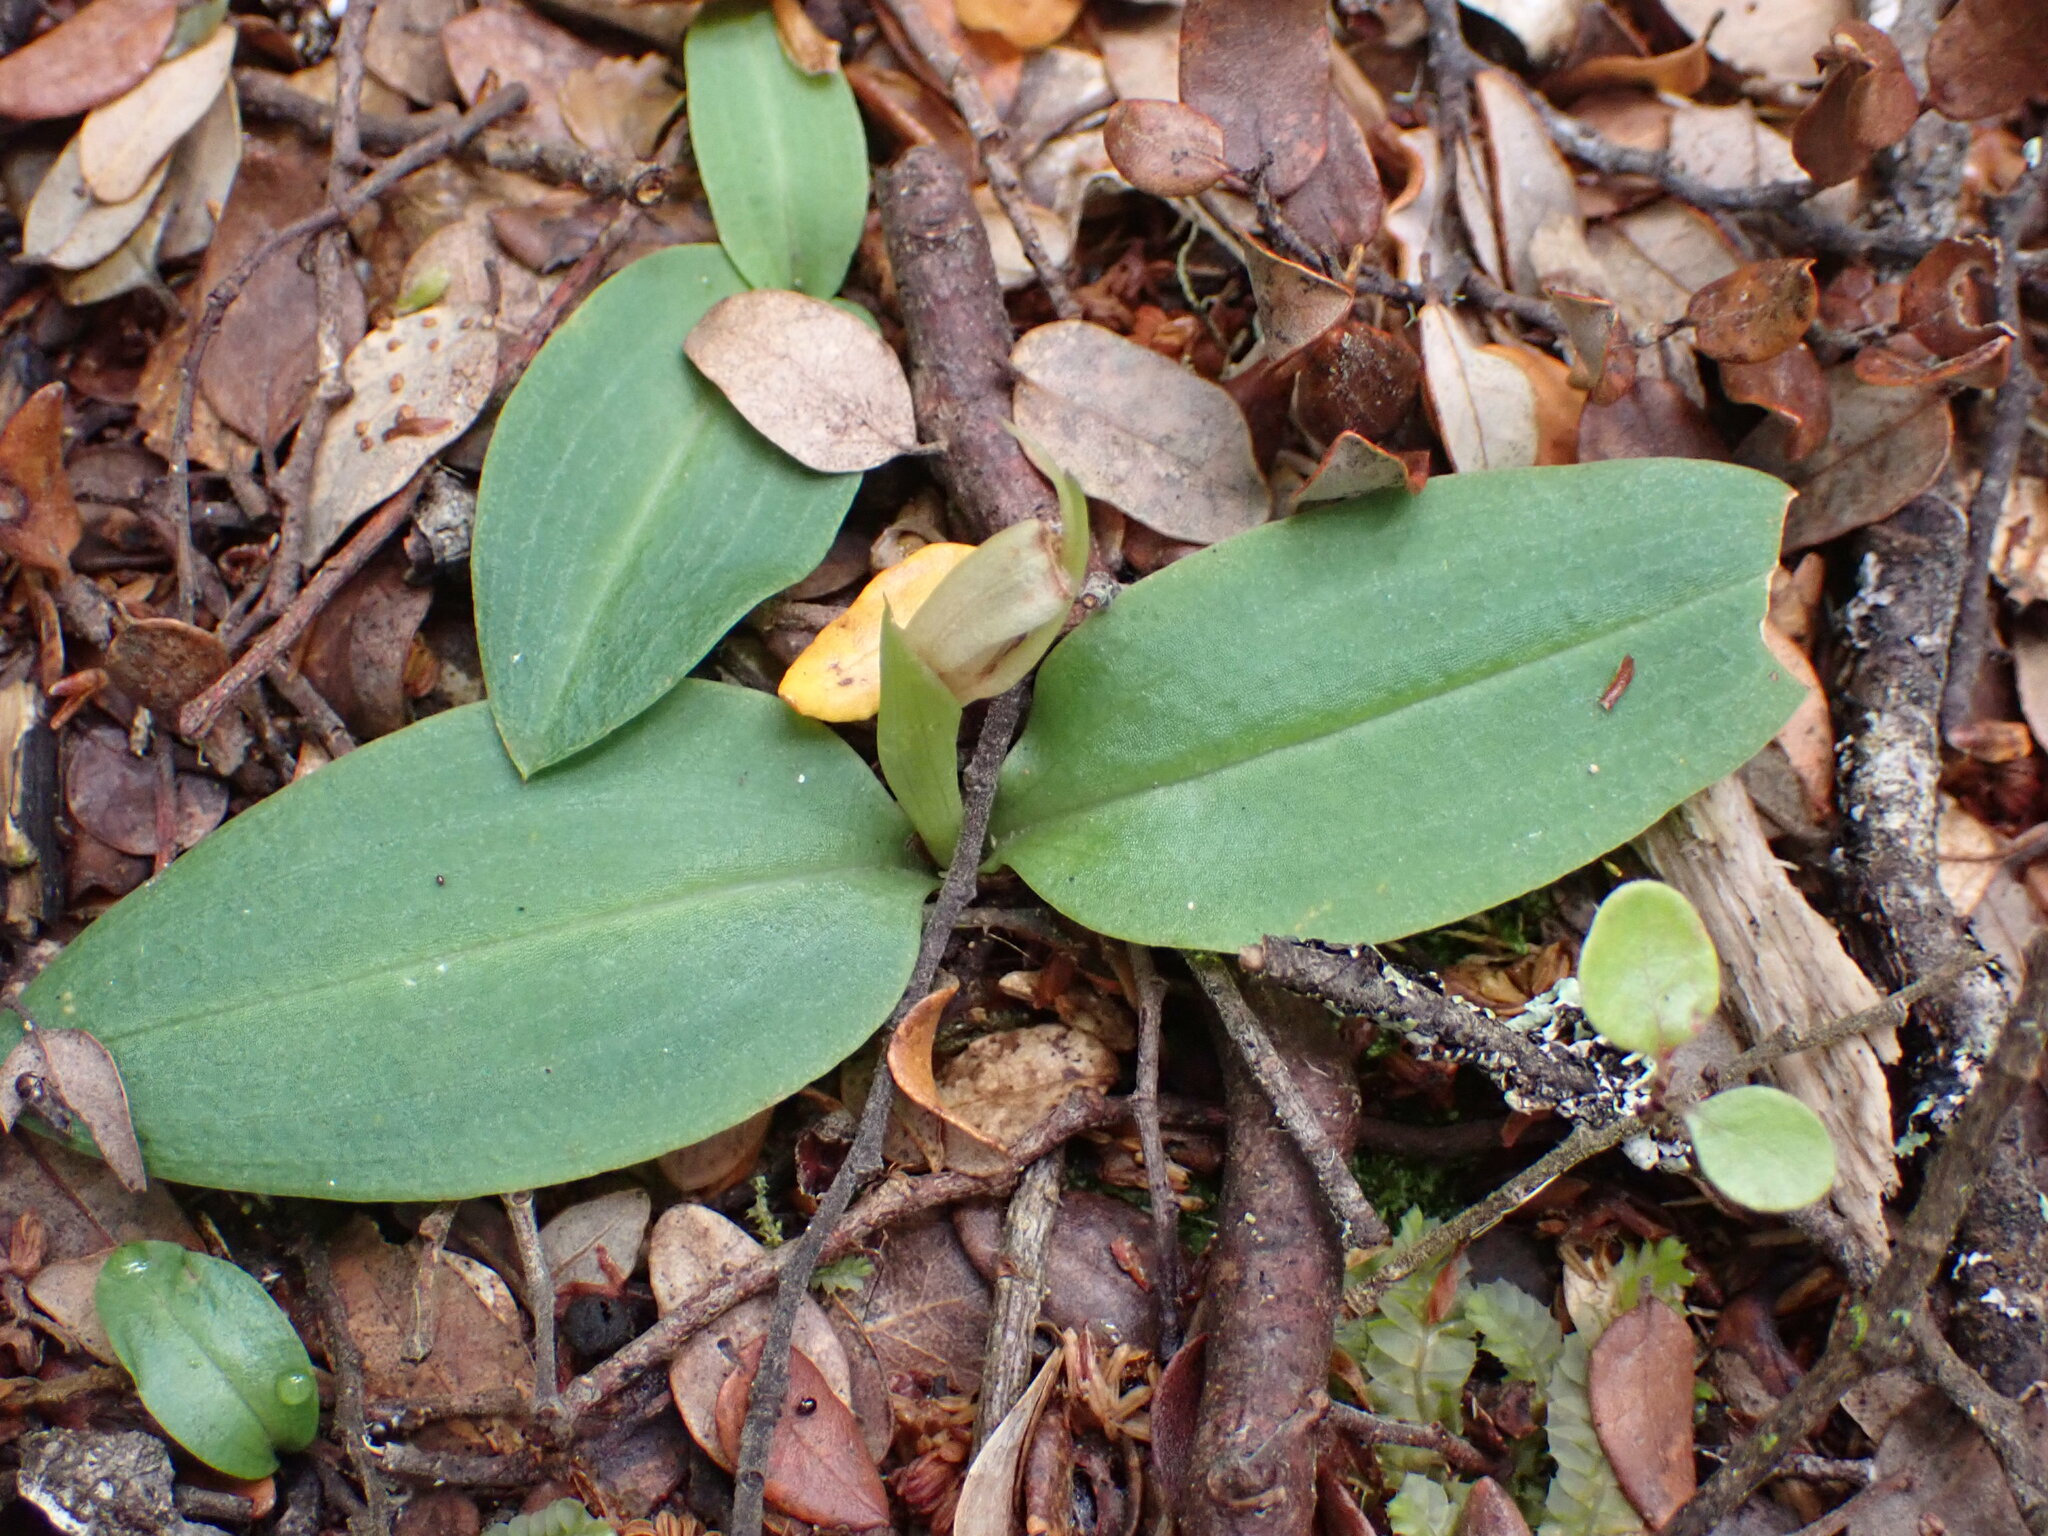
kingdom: Plantae
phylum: Tracheophyta
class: Liliopsida
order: Asparagales
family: Orchidaceae
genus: Chiloglottis
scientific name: Chiloglottis cornuta
